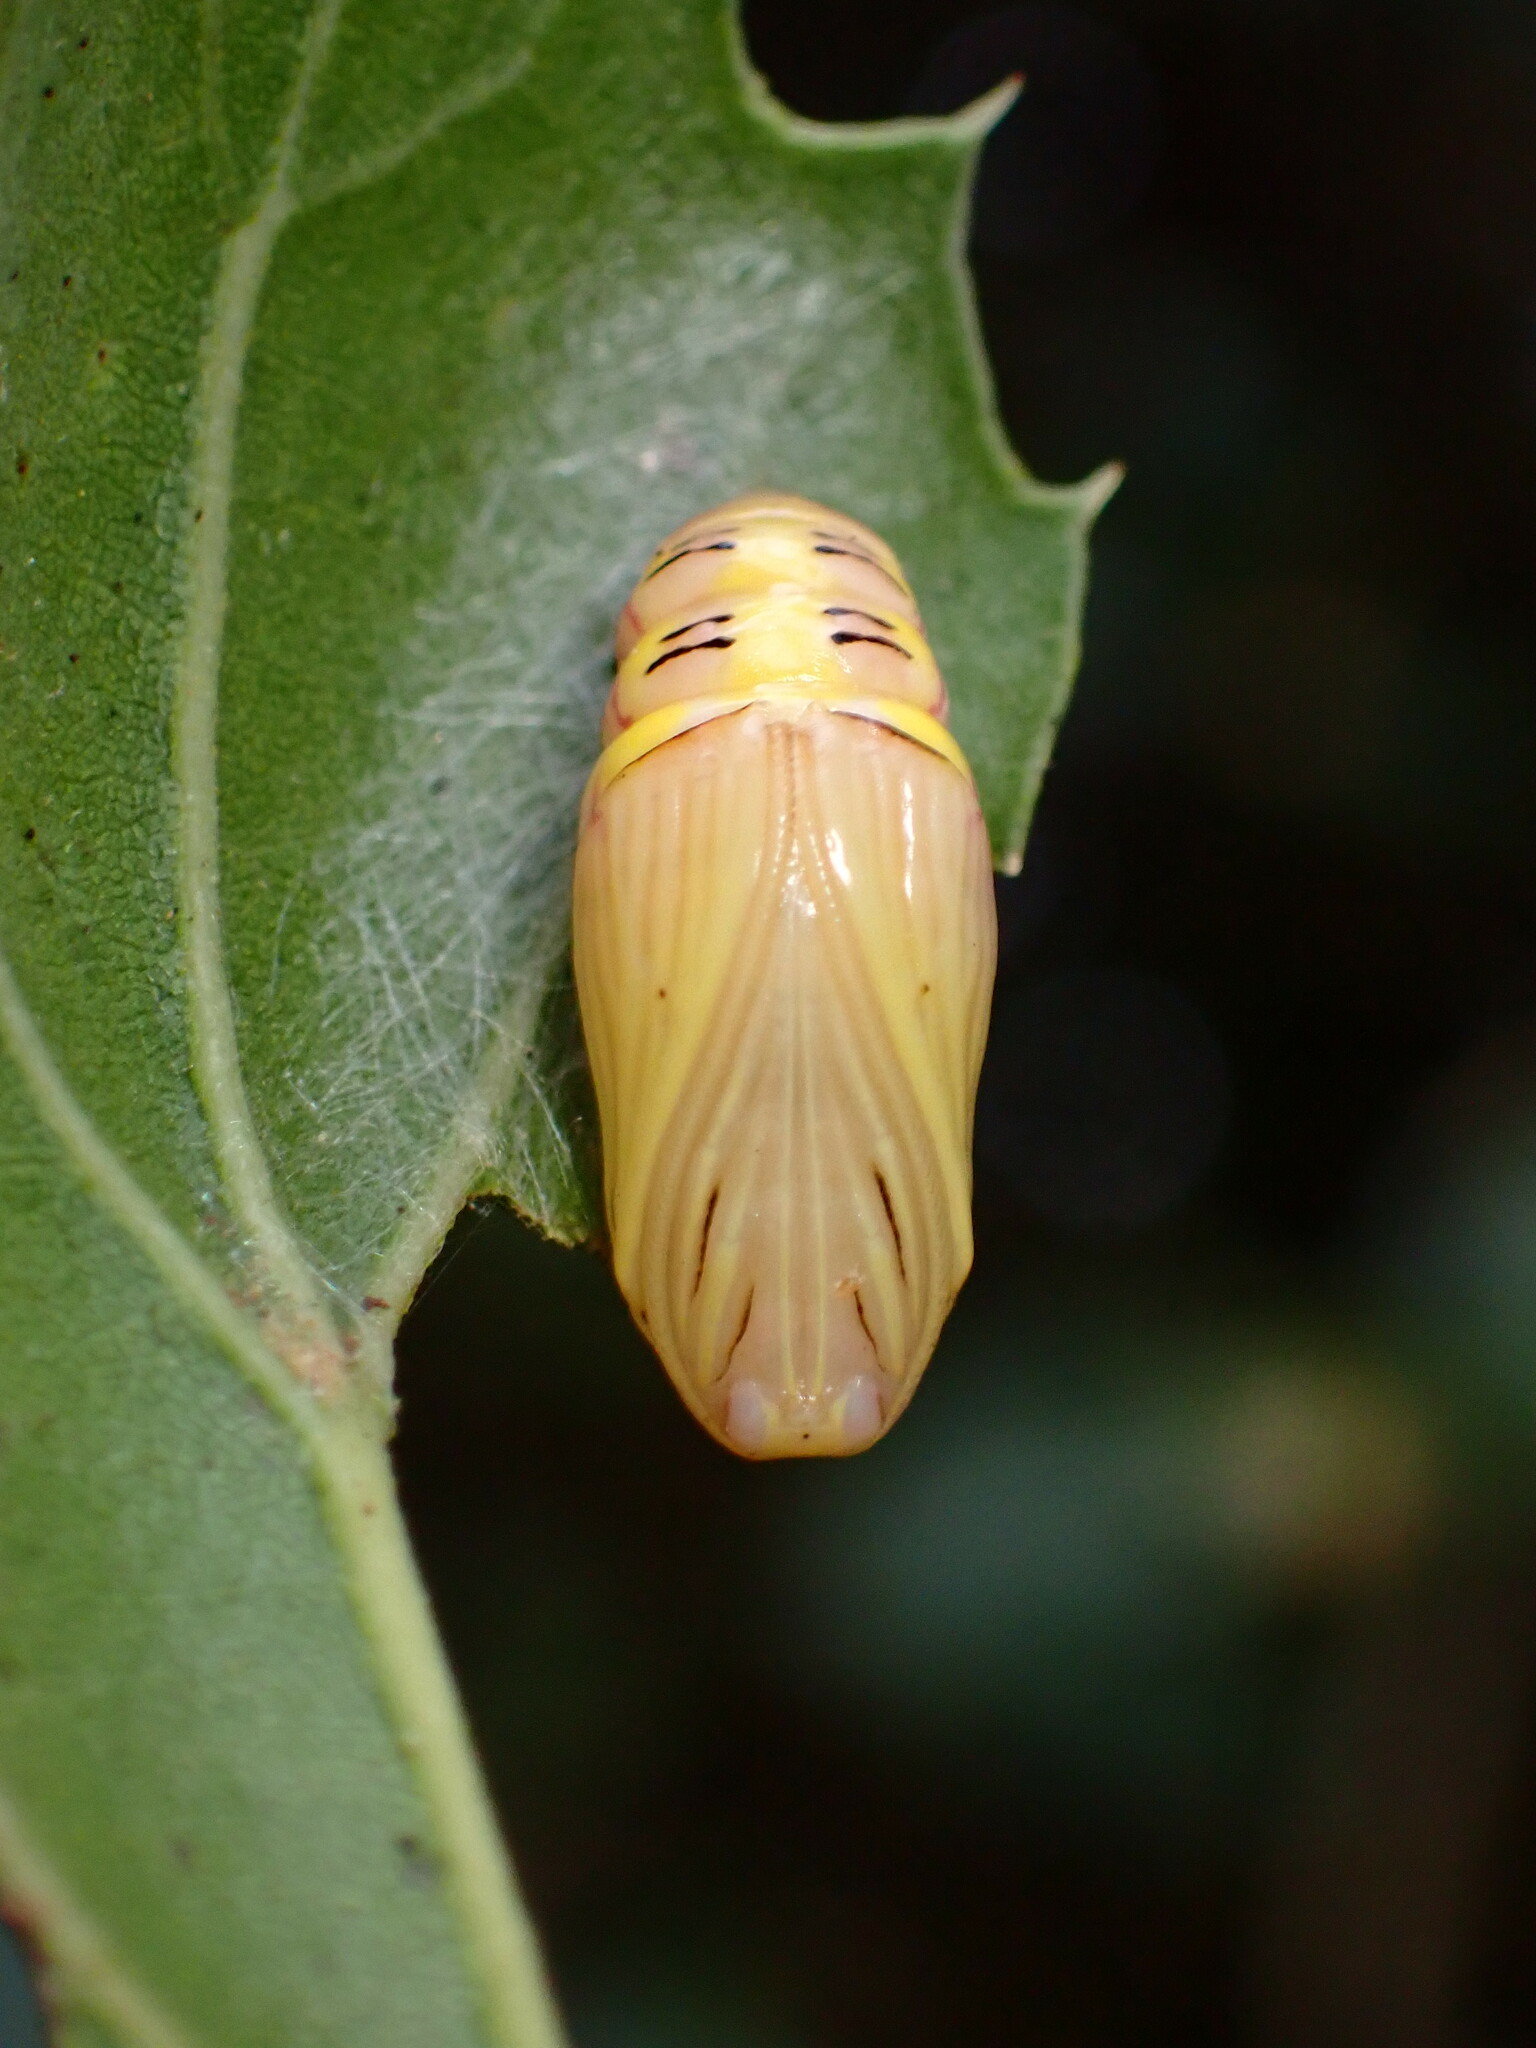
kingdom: Animalia
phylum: Arthropoda
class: Insecta
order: Lepidoptera
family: Notodontidae
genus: Phryganidia
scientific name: Phryganidia californica
